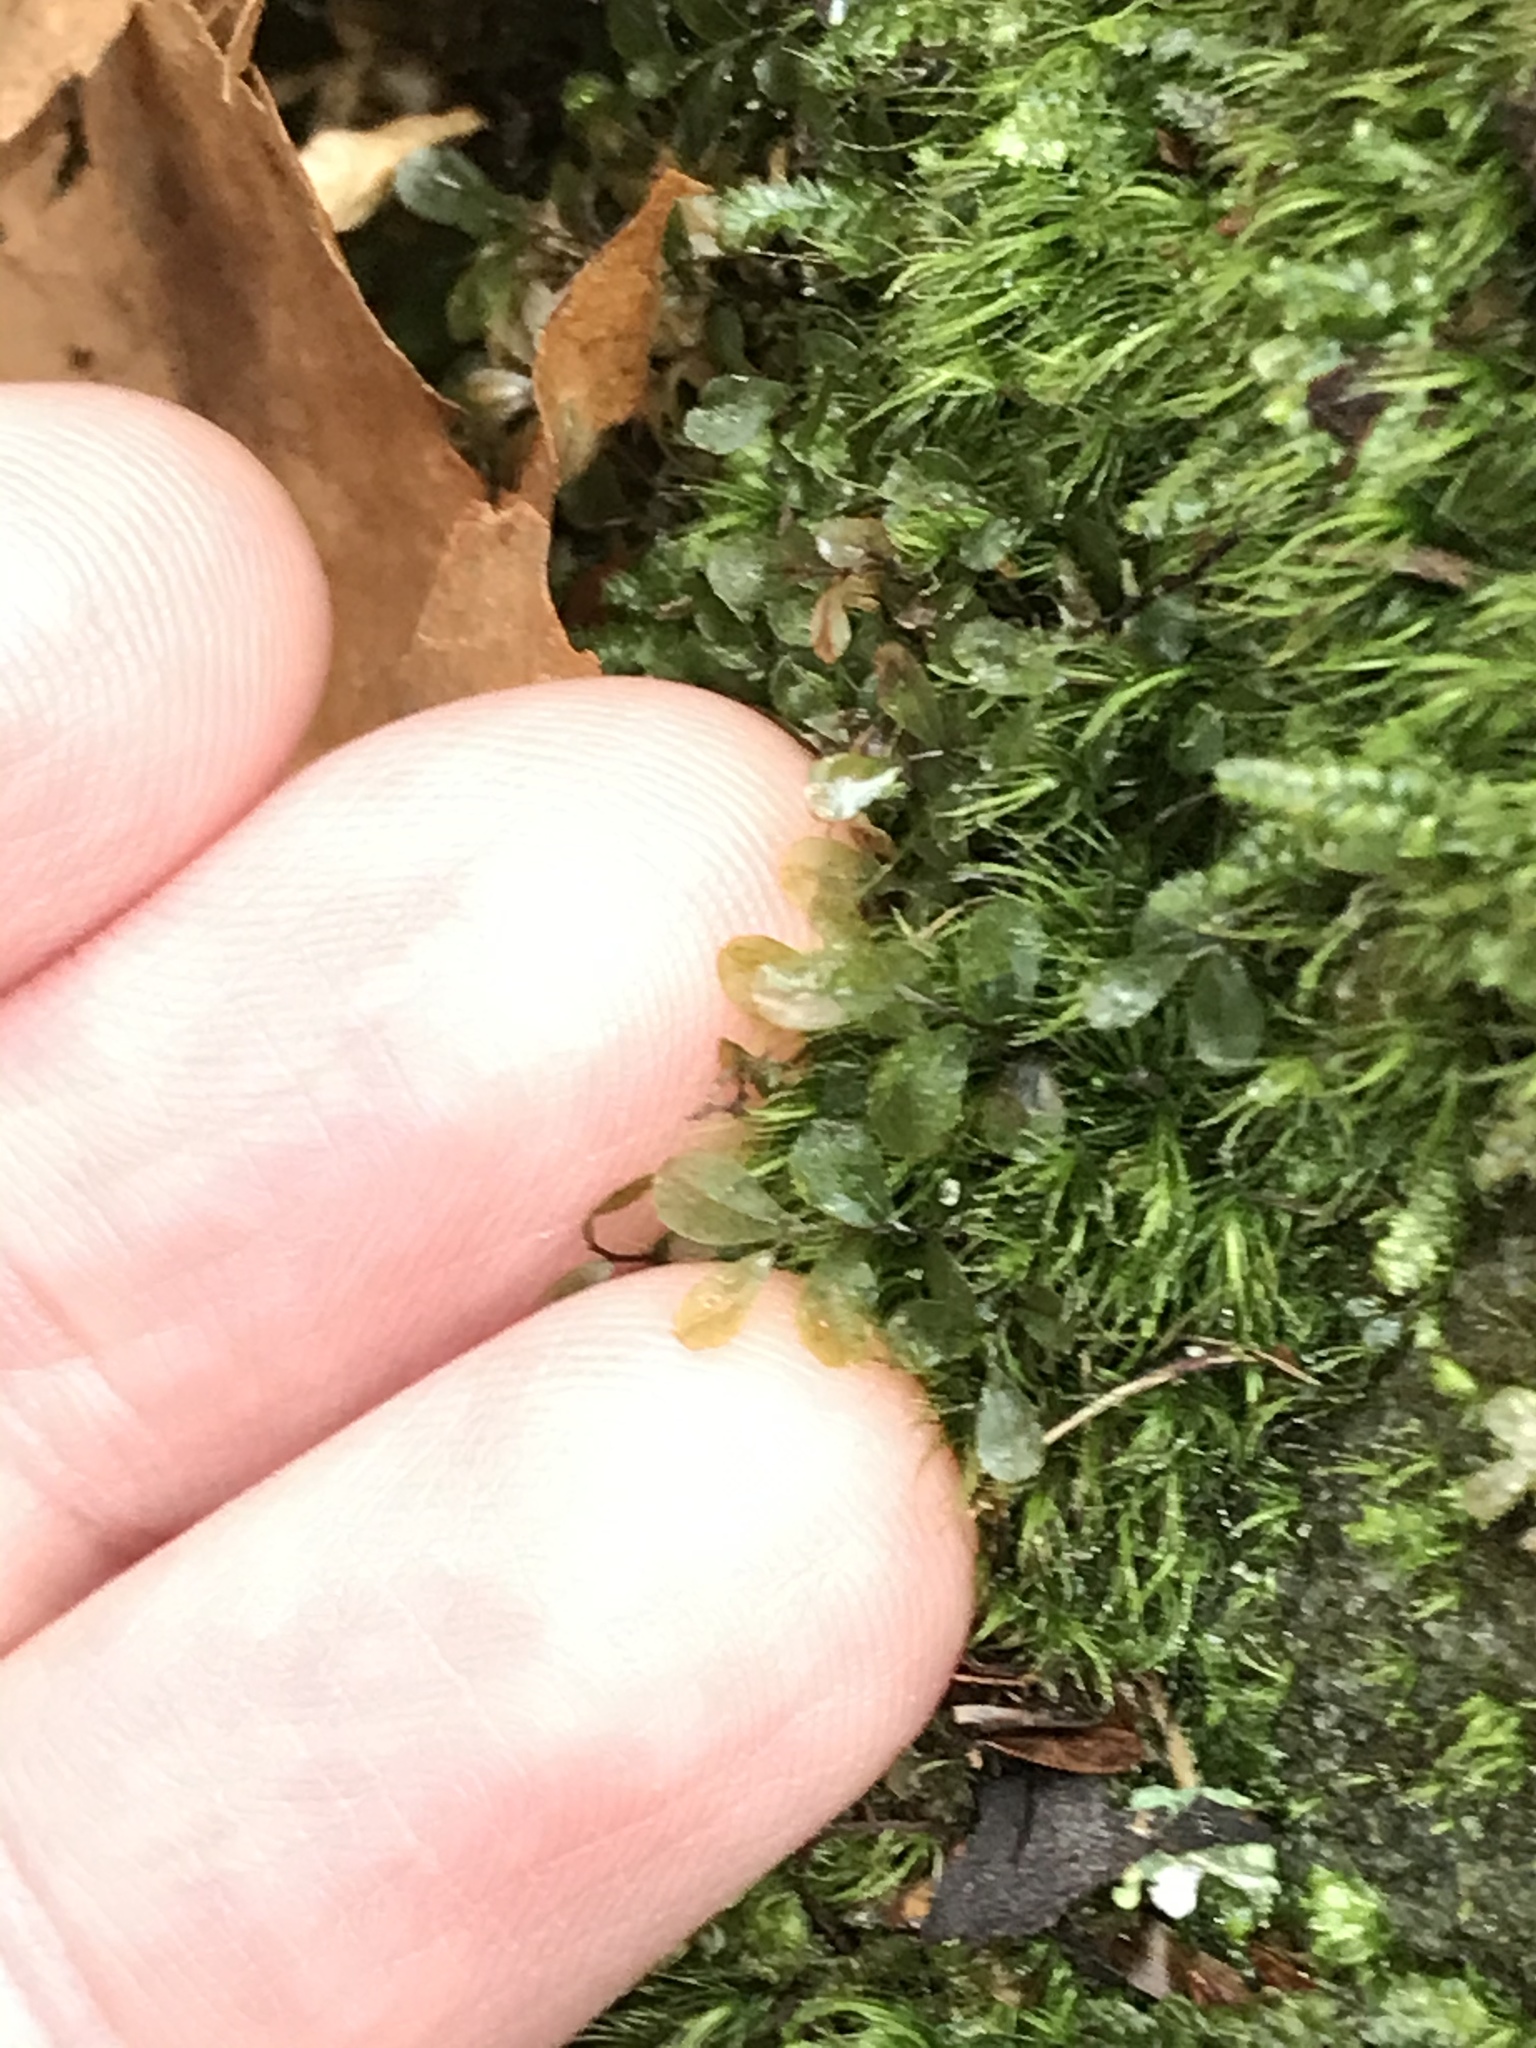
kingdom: Plantae
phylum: Bryophyta
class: Bryopsida
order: Bryales
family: Mniaceae
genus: Rhizomnium
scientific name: Rhizomnium punctatum
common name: Dotted leafy moss
